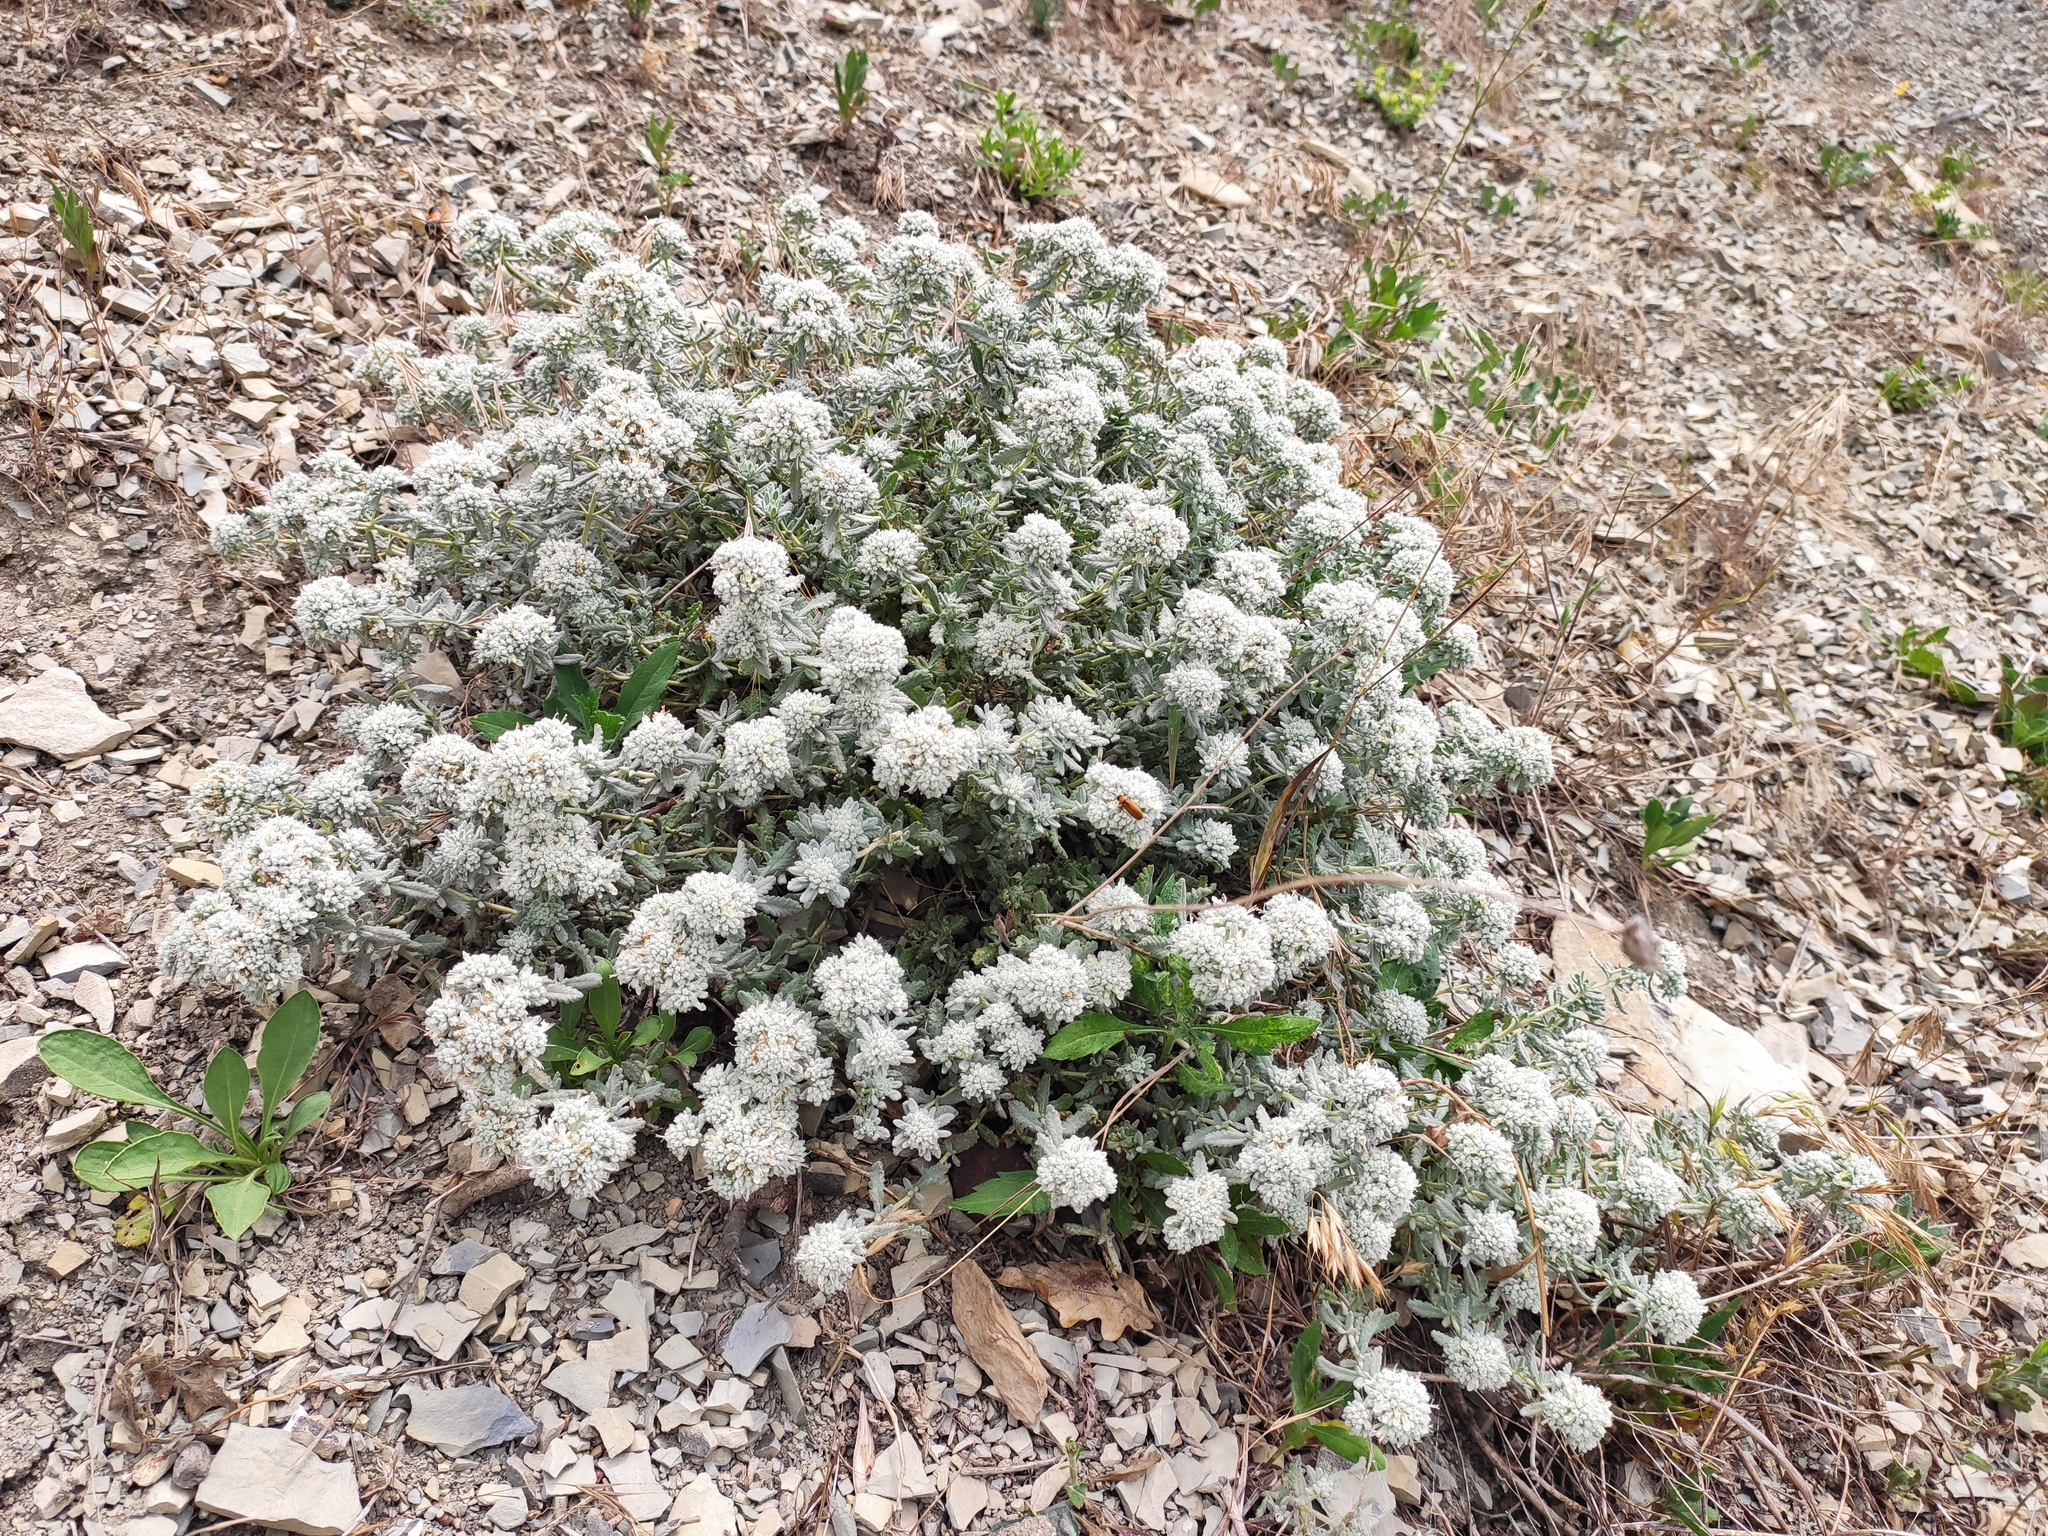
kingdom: Plantae
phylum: Tracheophyta
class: Magnoliopsida
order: Lamiales
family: Lamiaceae
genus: Teucrium
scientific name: Teucrium polium
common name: Poley
